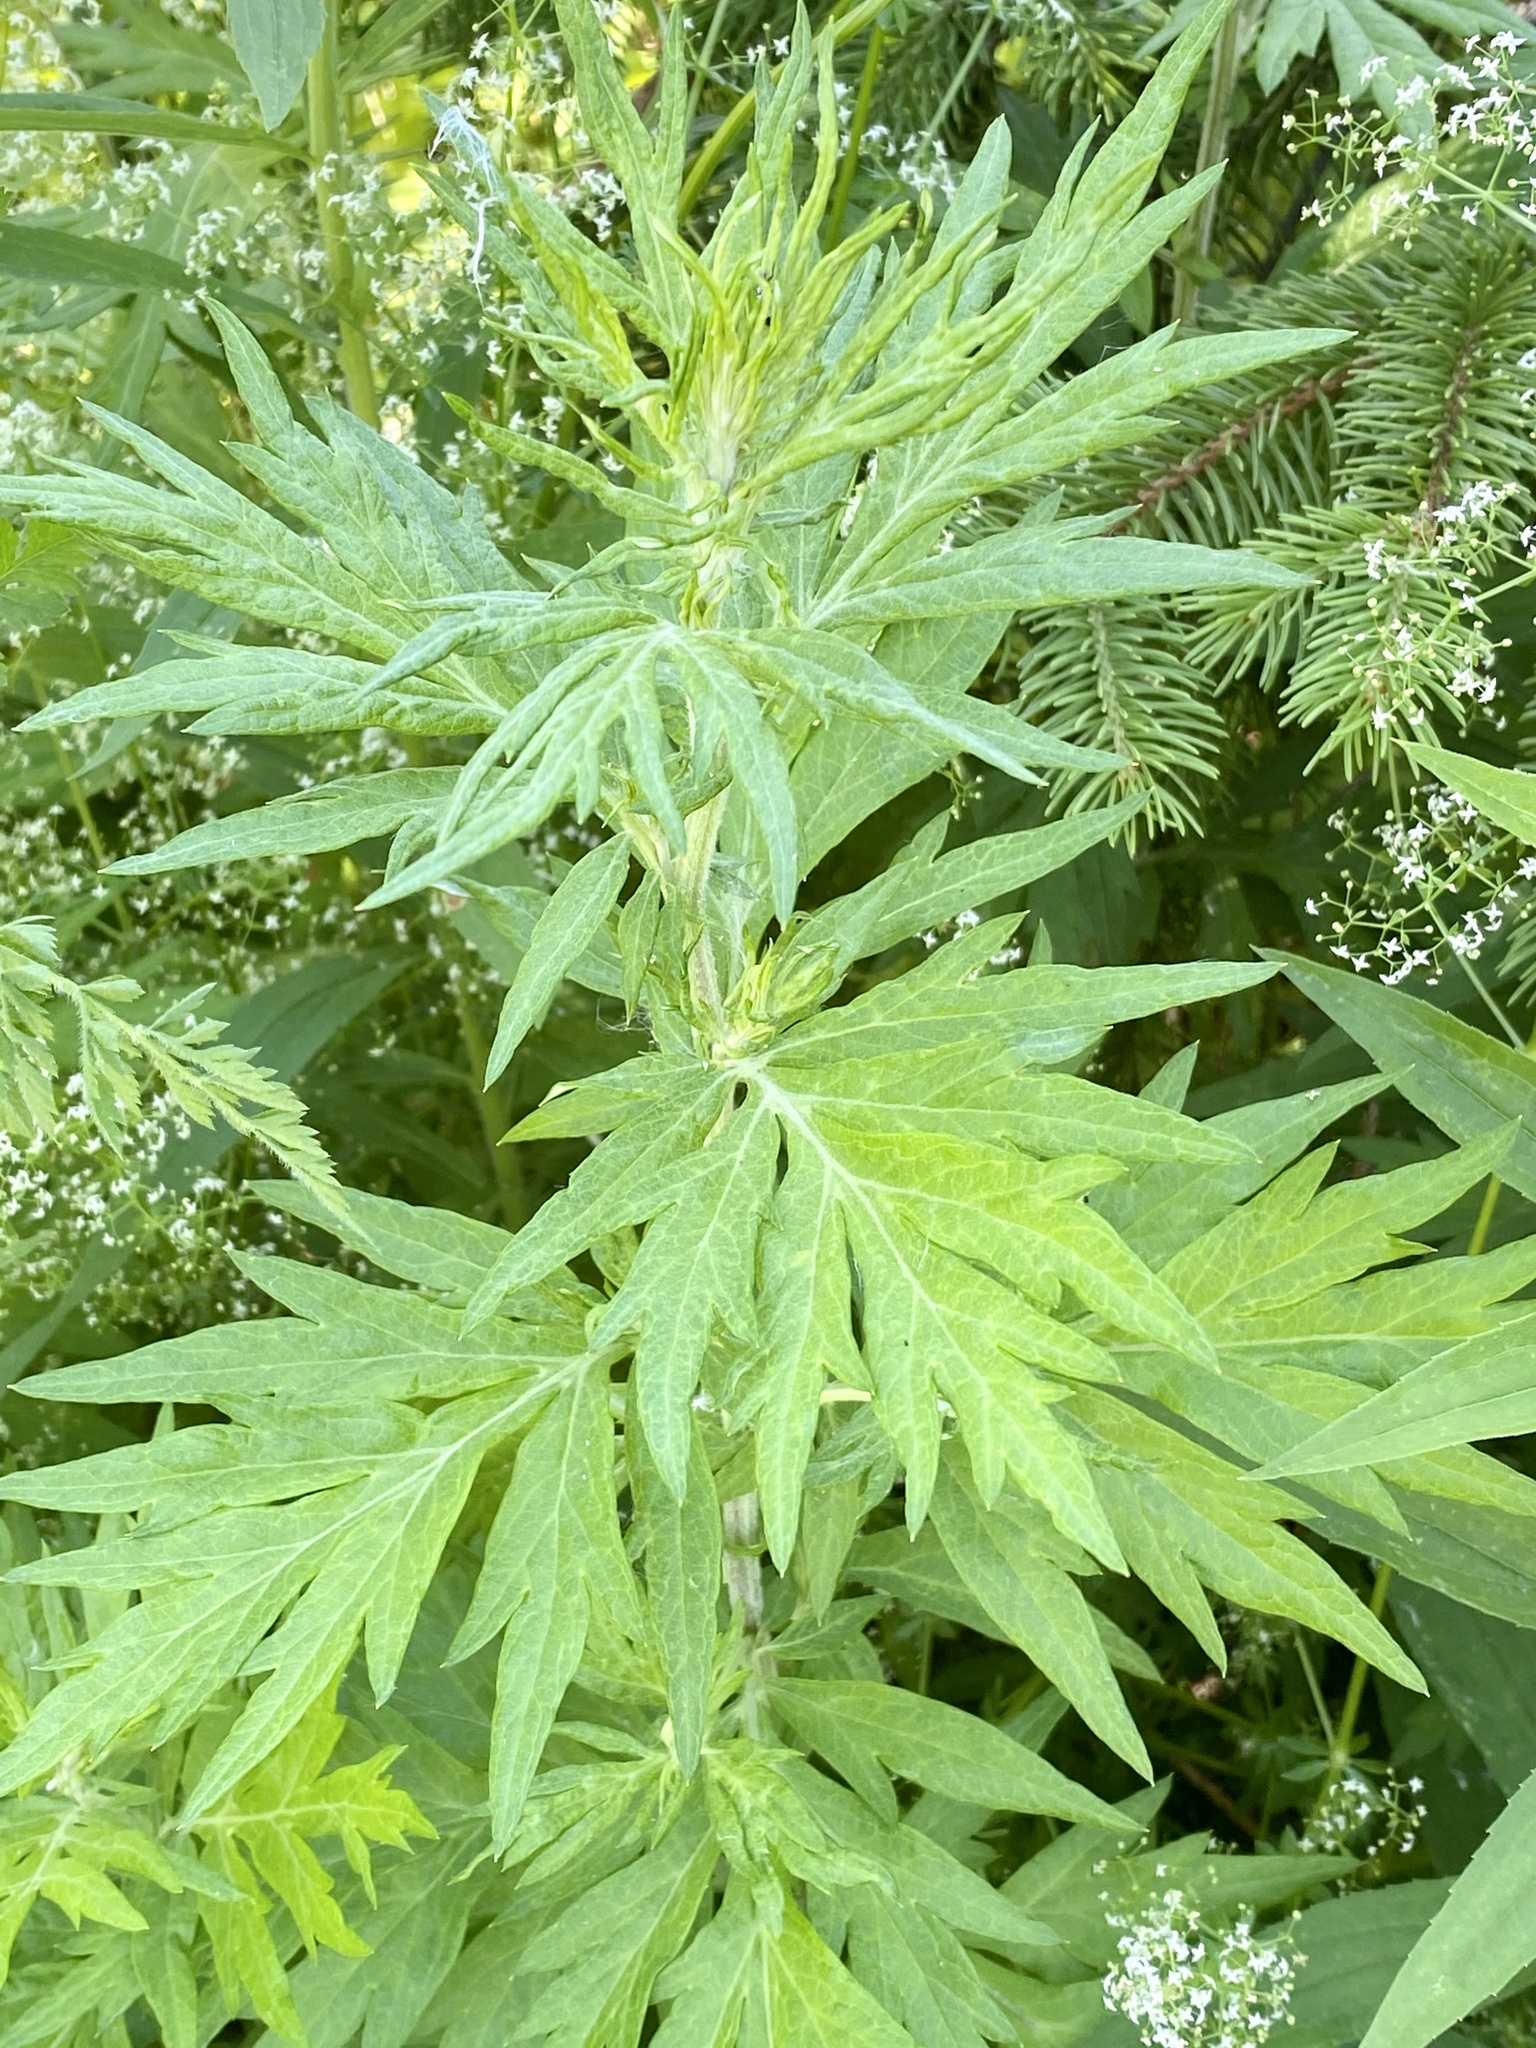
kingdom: Plantae
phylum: Tracheophyta
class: Magnoliopsida
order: Asterales
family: Asteraceae
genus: Artemisia
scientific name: Artemisia vulgaris
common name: Mugwort
